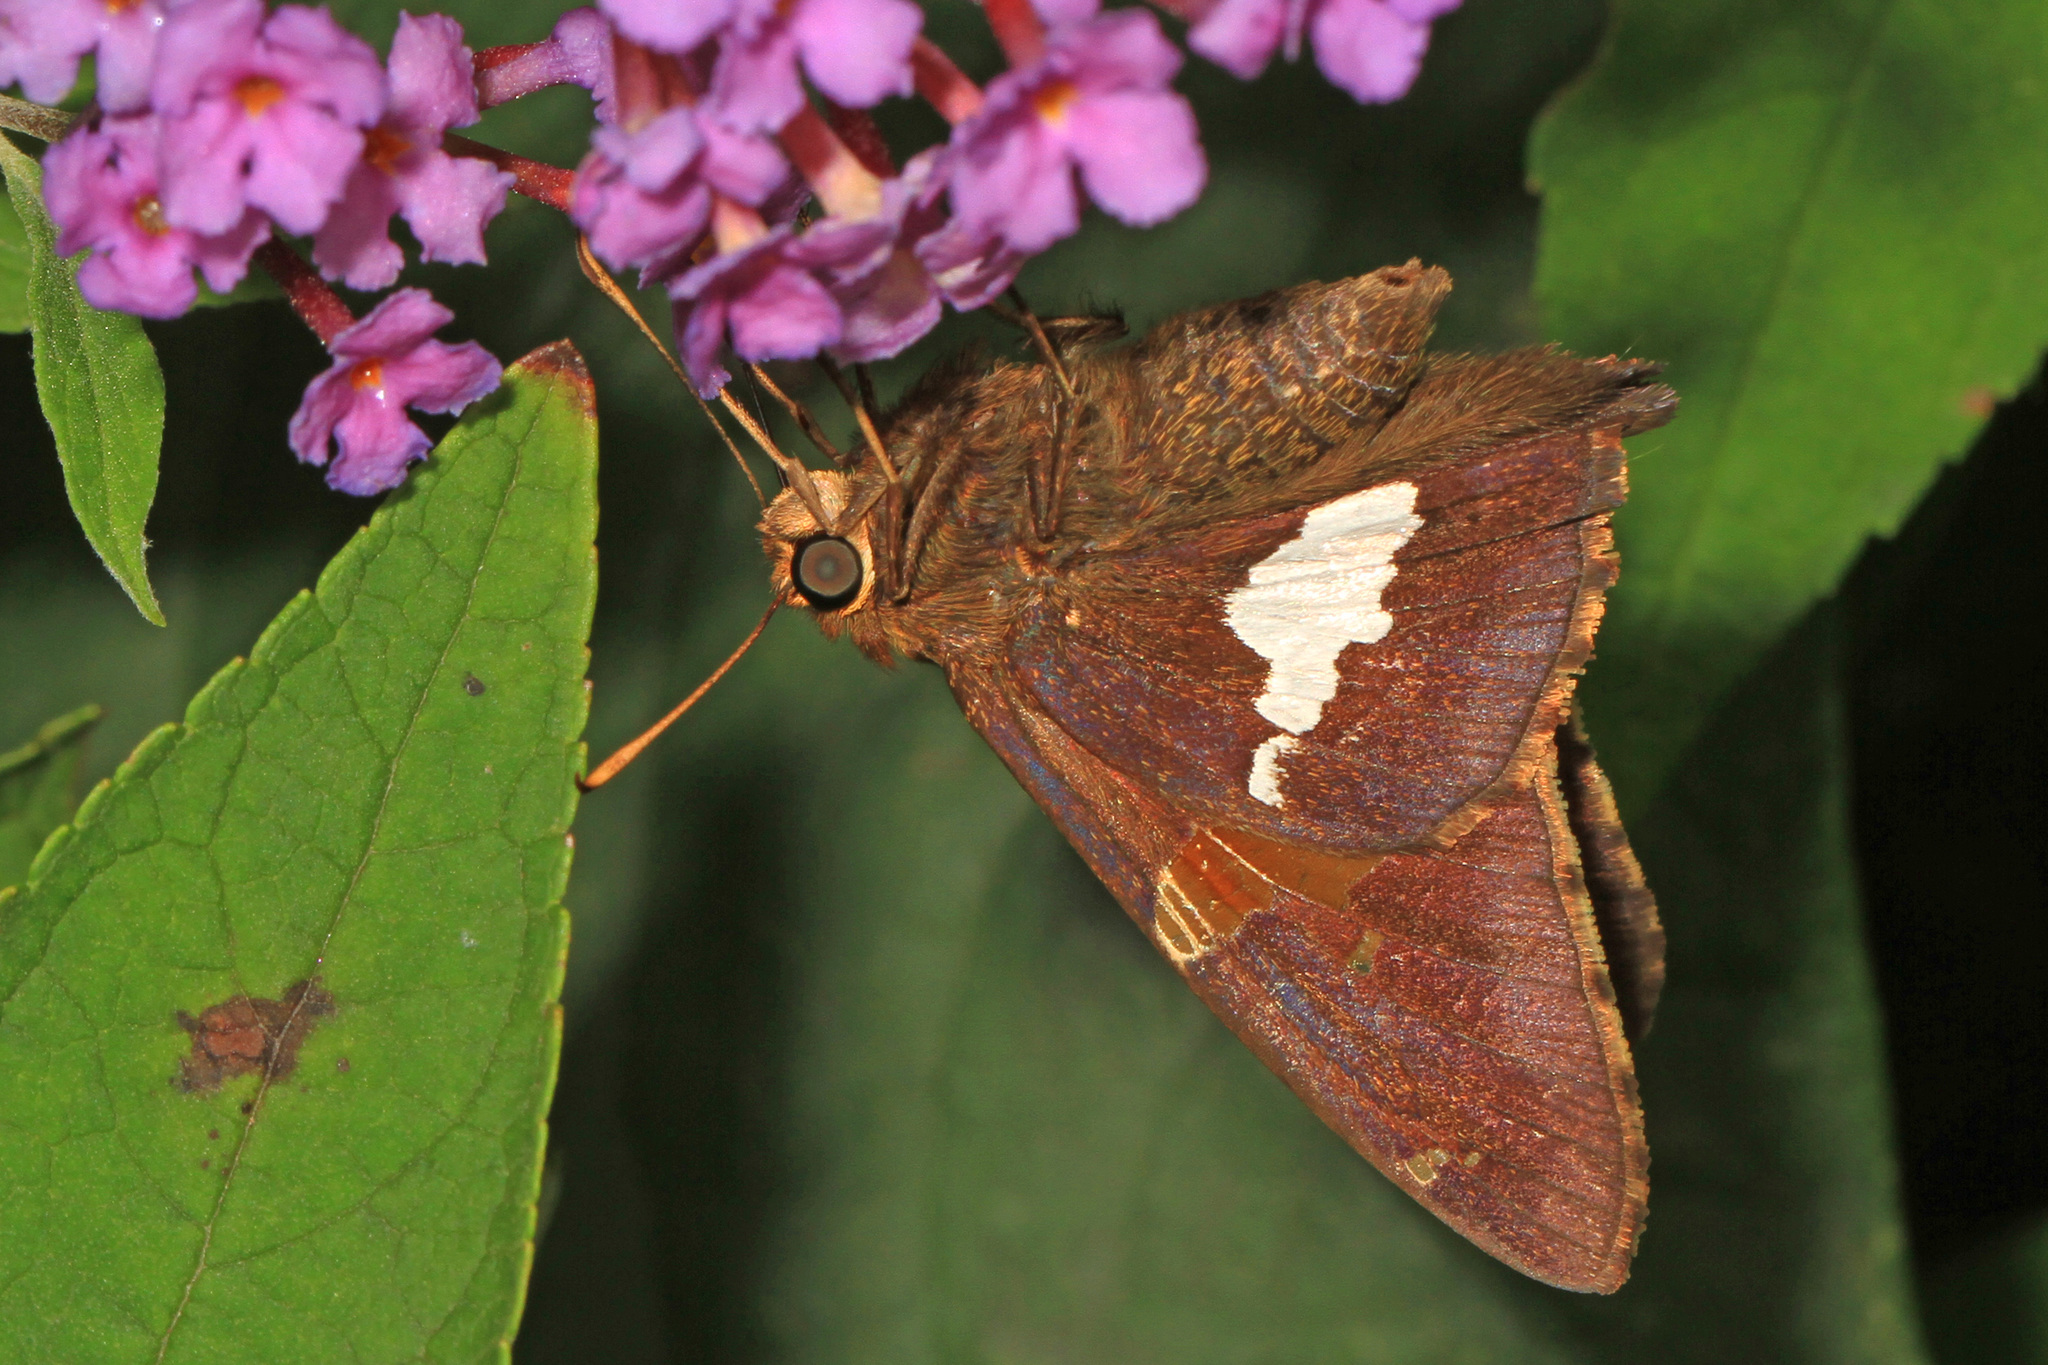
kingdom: Animalia
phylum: Arthropoda
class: Insecta
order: Lepidoptera
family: Hesperiidae
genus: Epargyreus
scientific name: Epargyreus clarus
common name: Silver-spotted skipper
